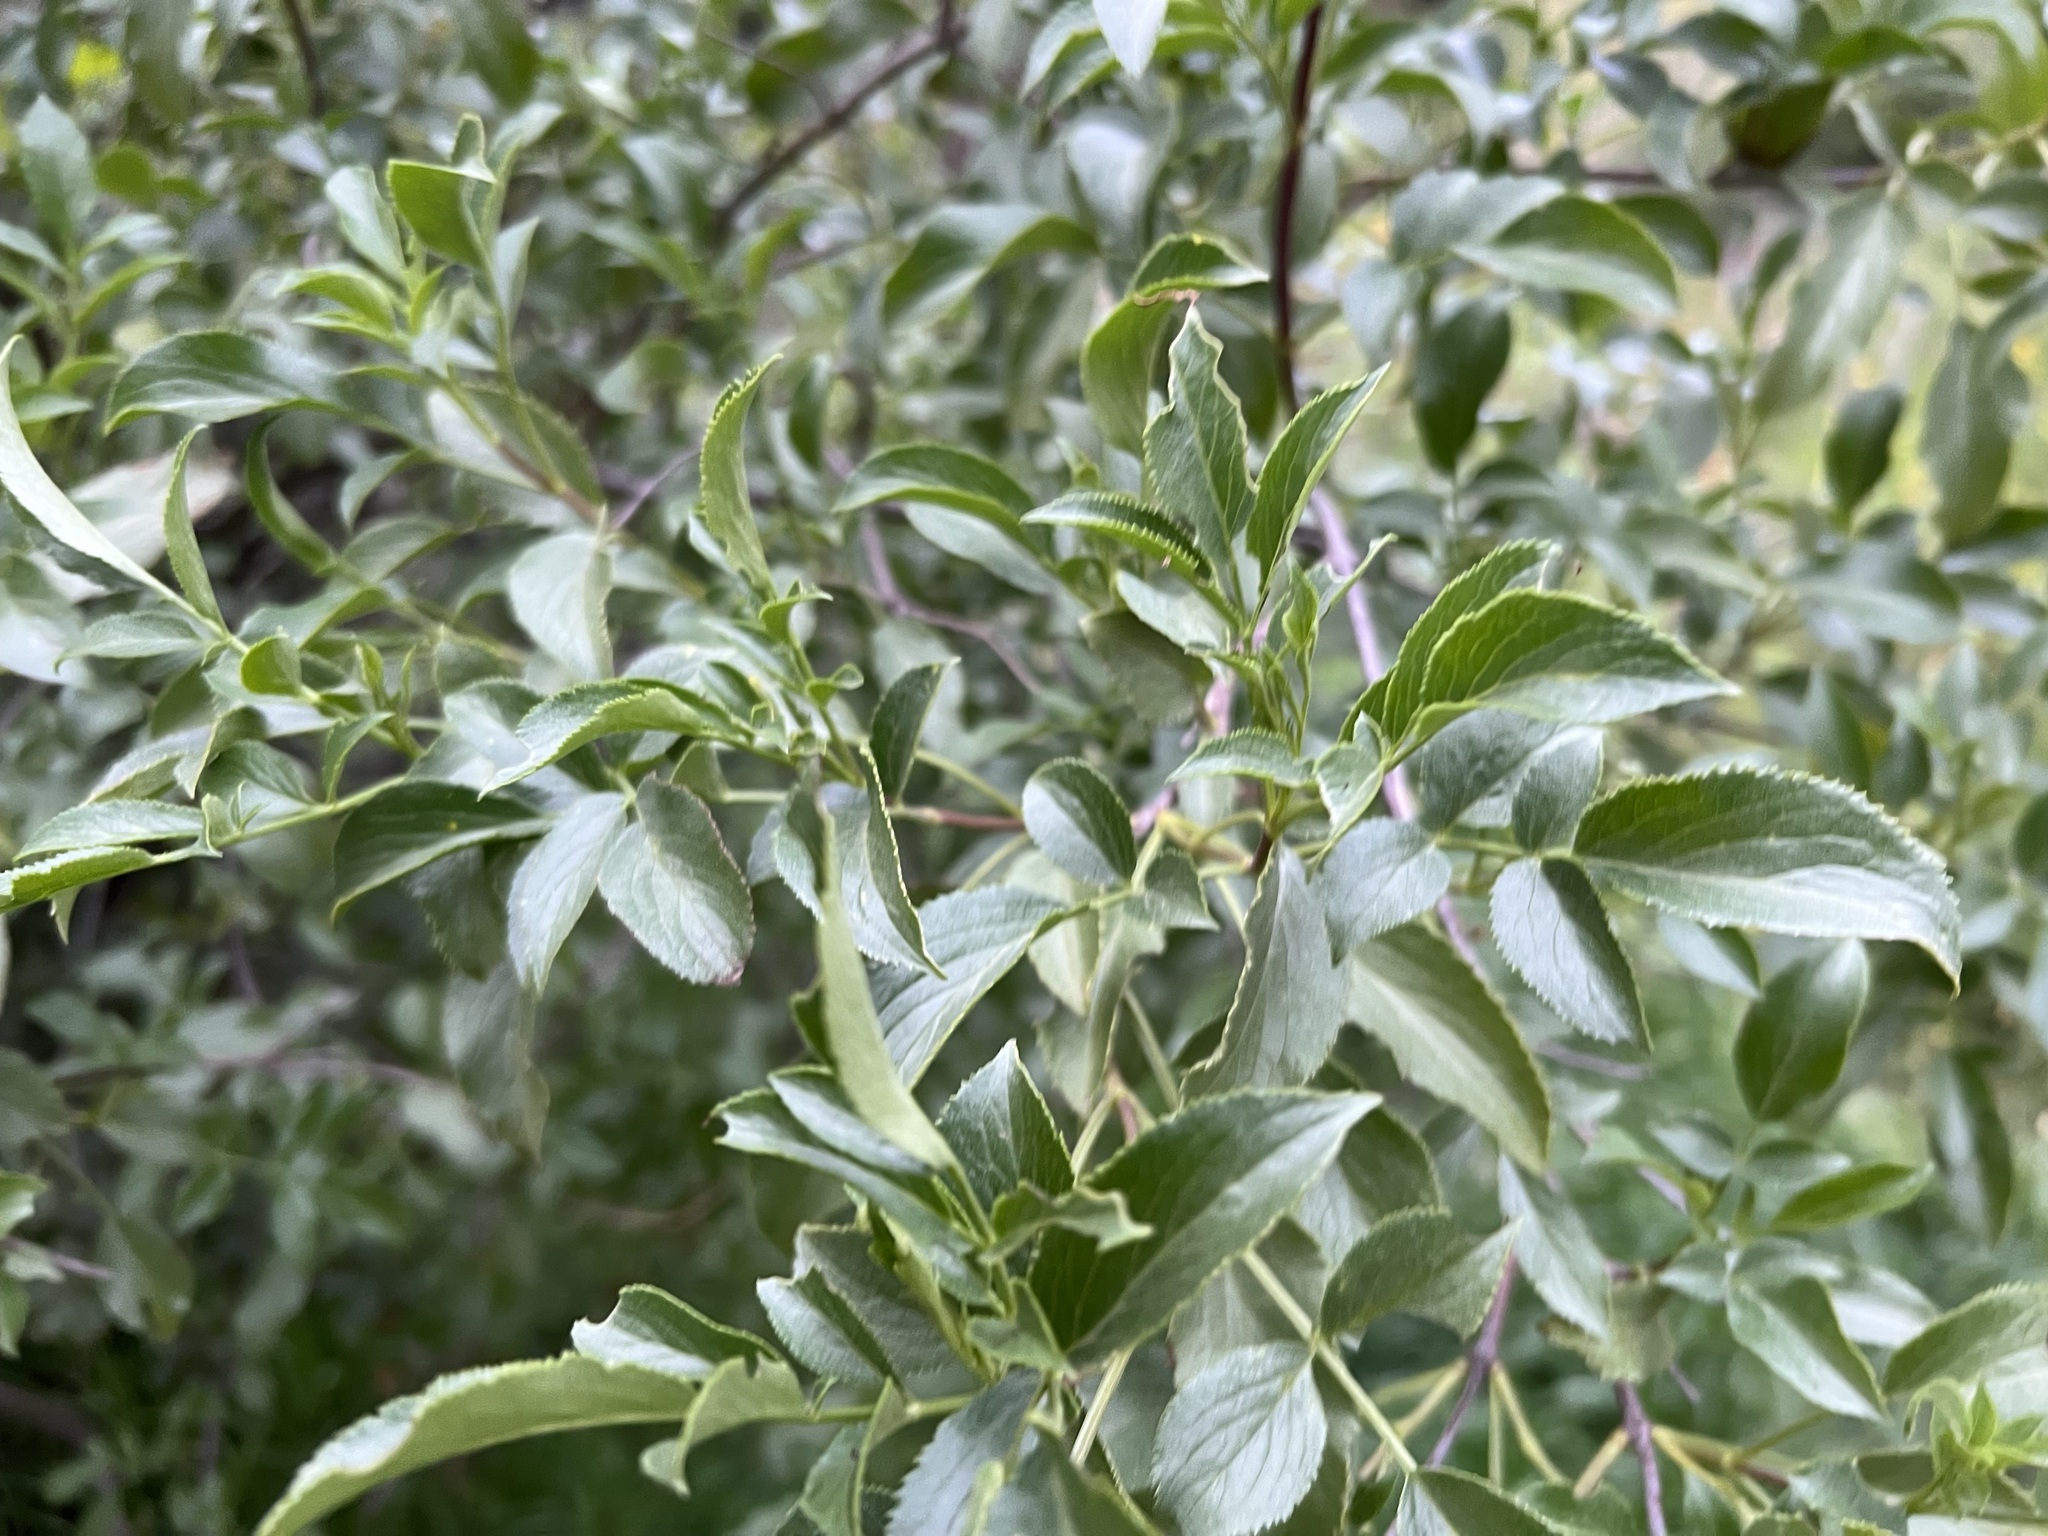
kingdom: Plantae
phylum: Tracheophyta
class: Magnoliopsida
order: Dipsacales
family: Viburnaceae
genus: Sambucus
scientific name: Sambucus cerulea
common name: Blue elder
